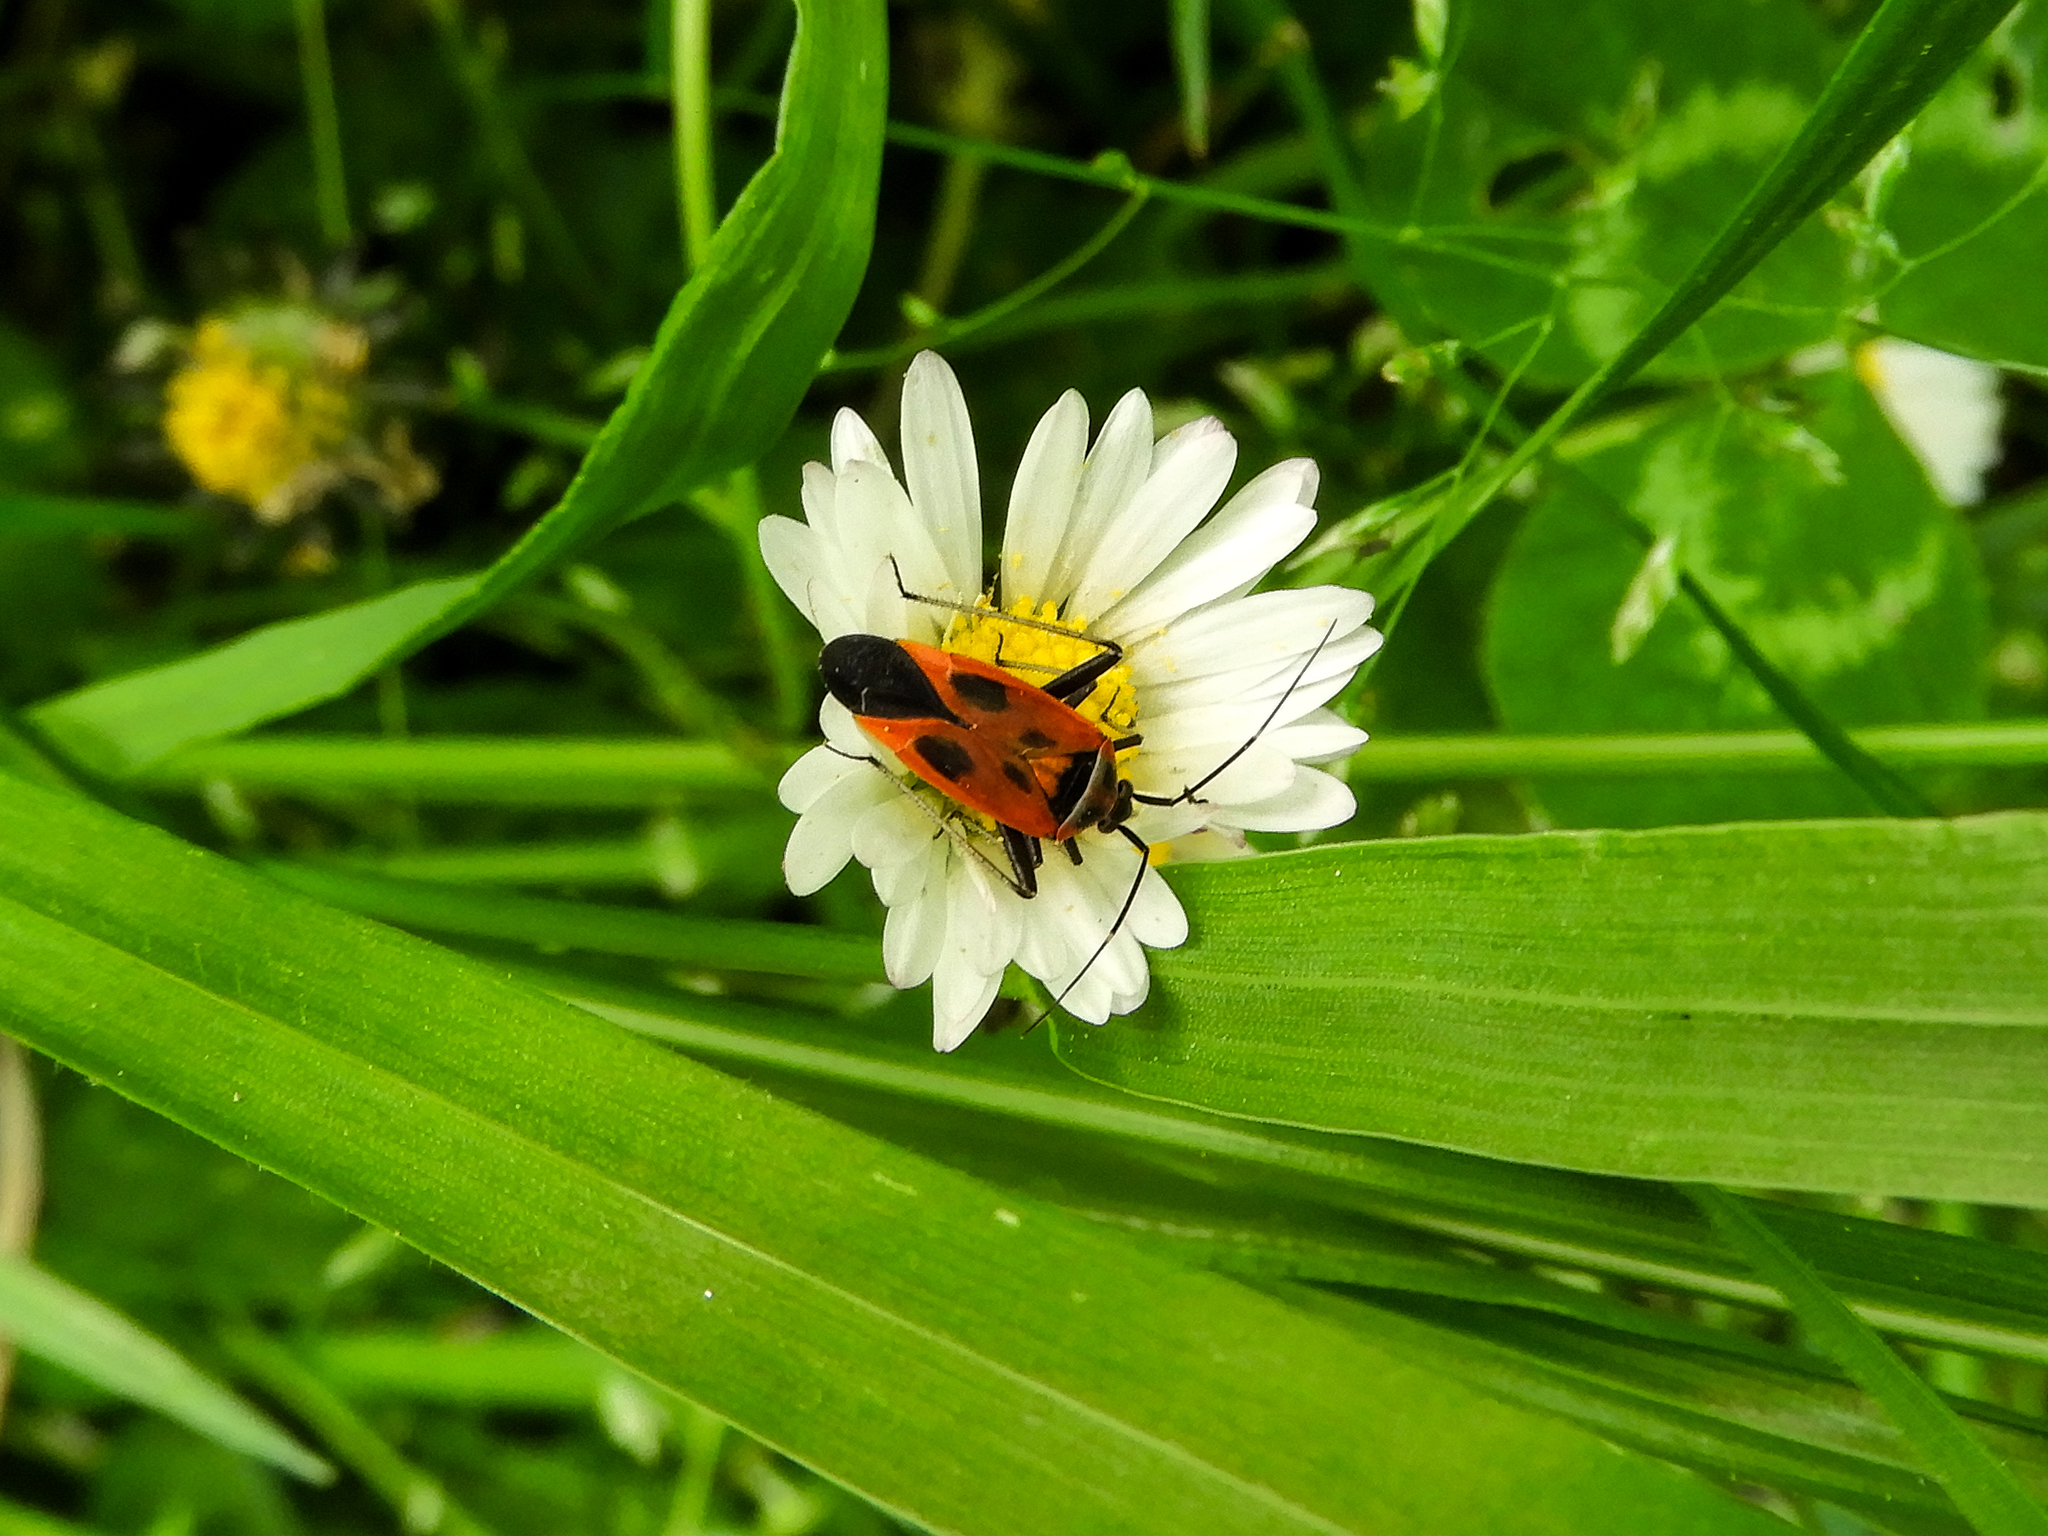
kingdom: Animalia
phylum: Arthropoda
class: Insecta
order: Hemiptera
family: Miridae
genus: Calocoris
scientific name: Calocoris nemoralis
